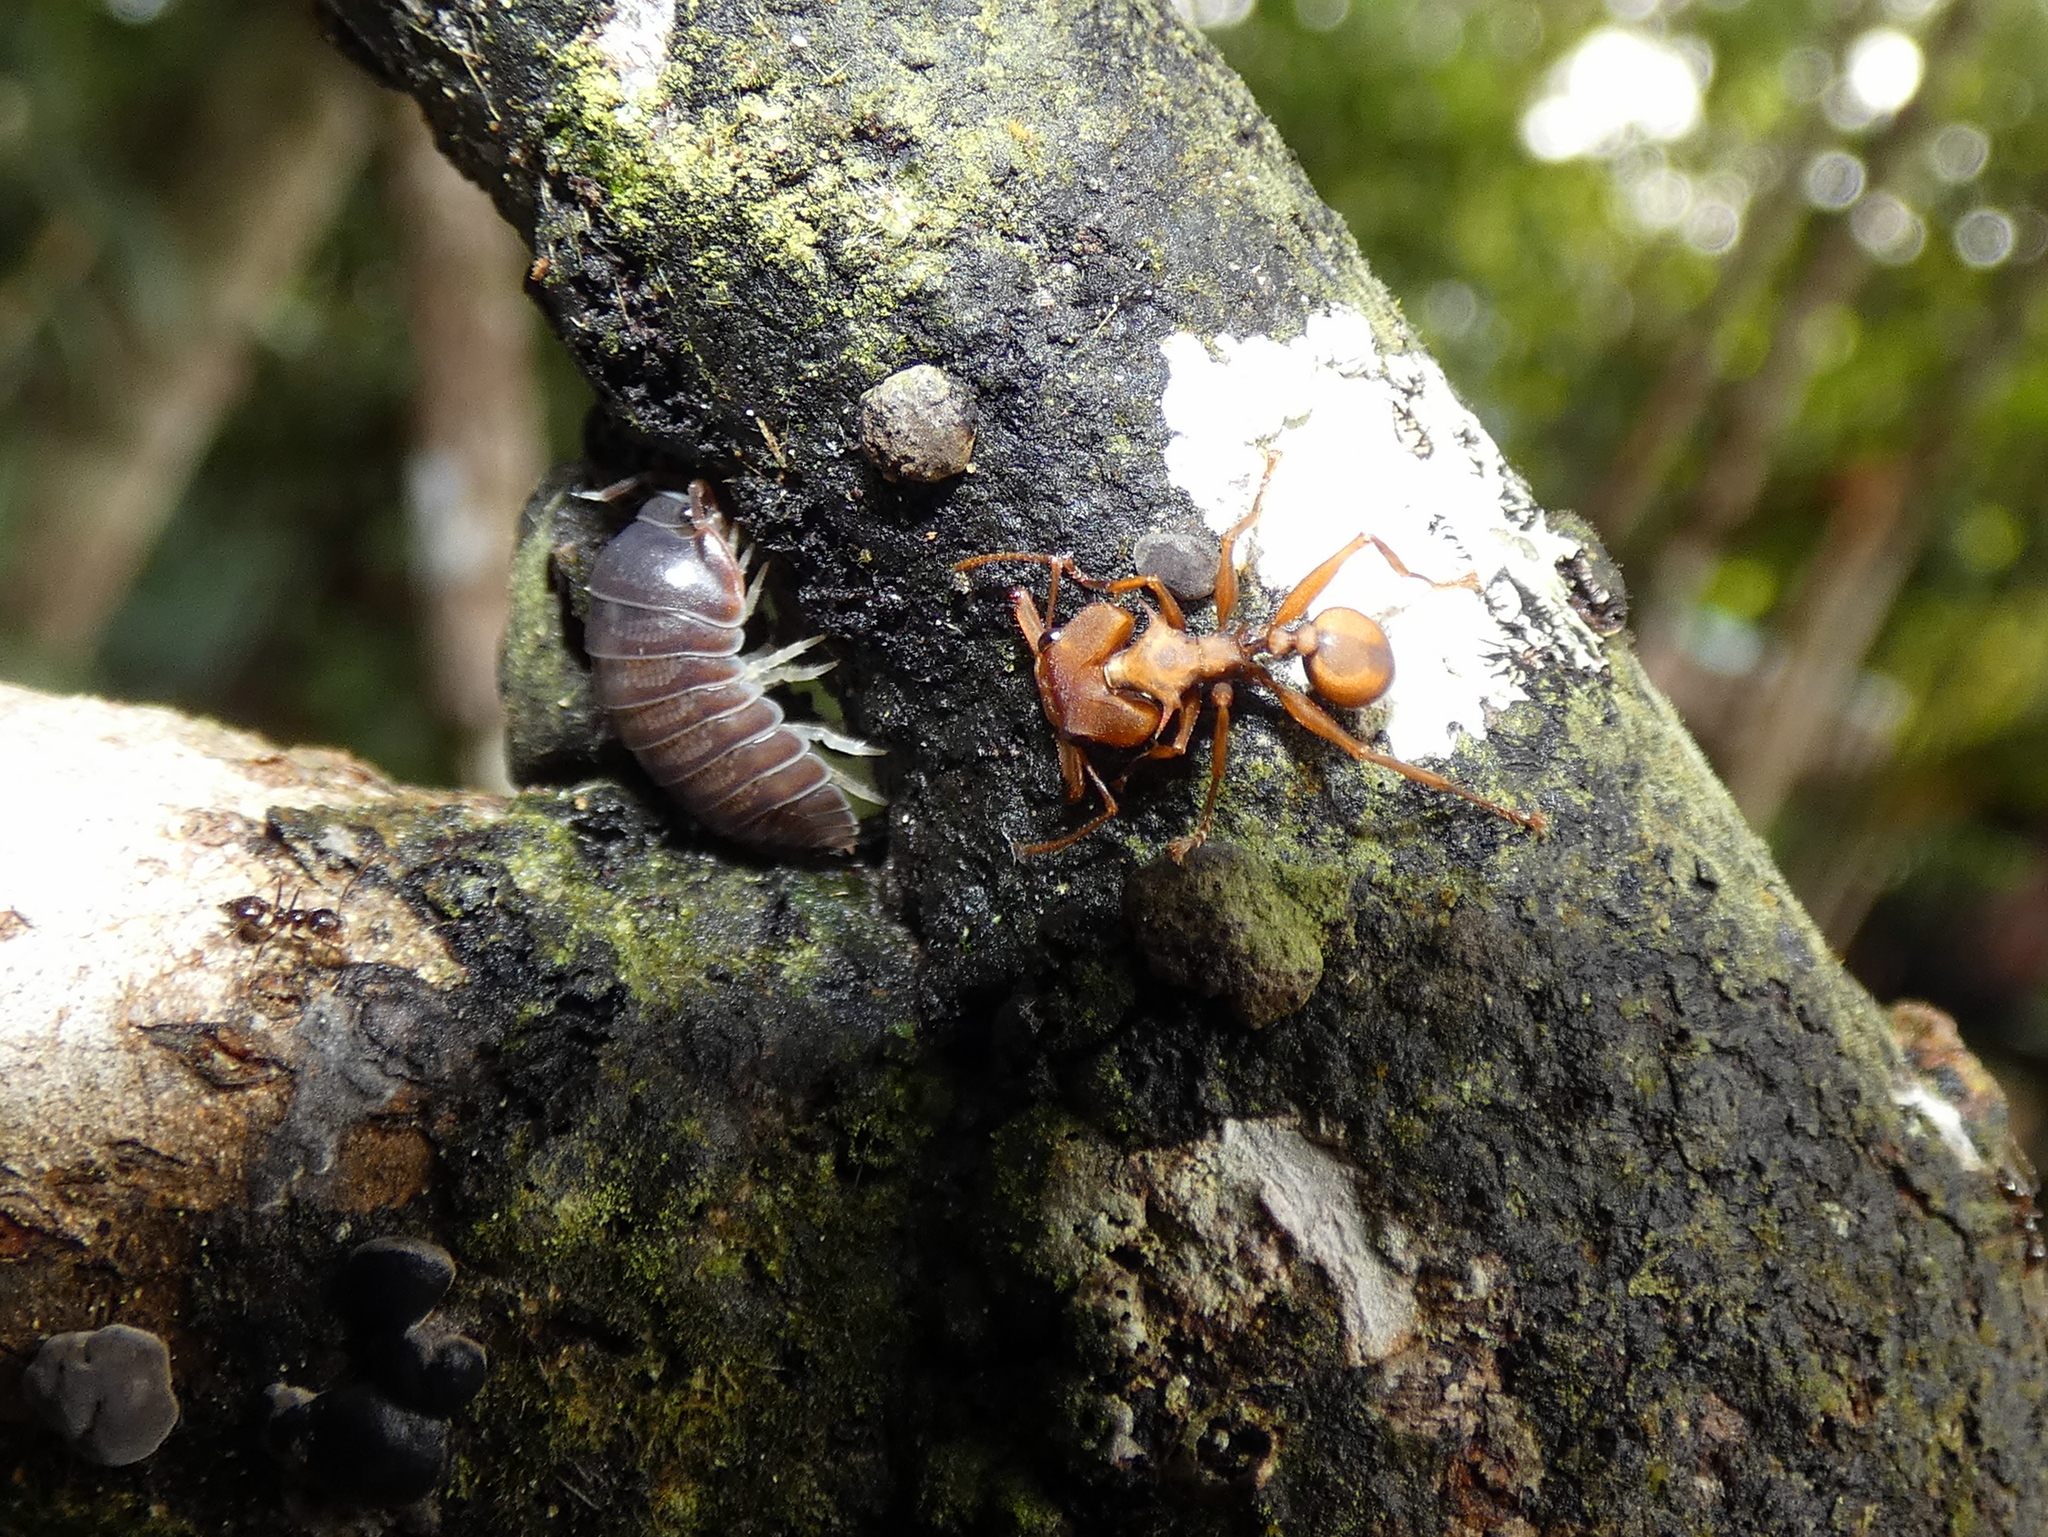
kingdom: Animalia
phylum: Arthropoda
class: Insecta
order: Hymenoptera
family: Formicidae
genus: Daceton
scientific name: Daceton armigerum
